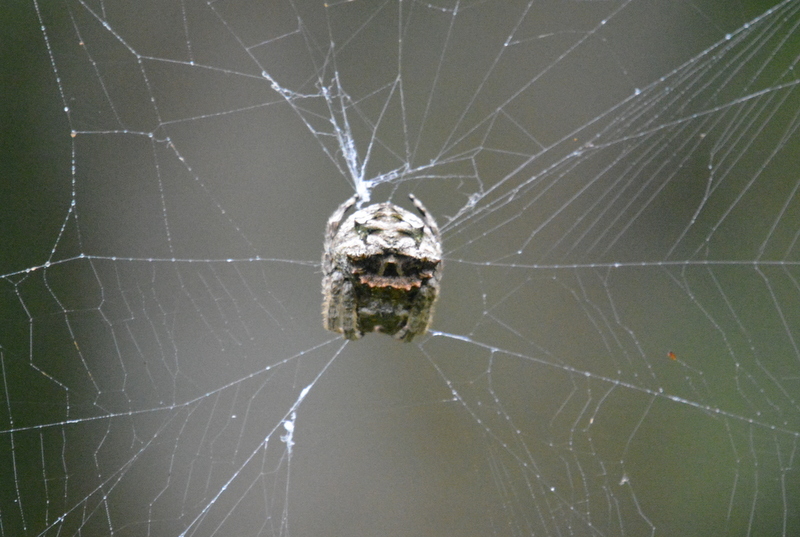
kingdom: Animalia
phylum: Arthropoda
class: Arachnida
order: Araneae
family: Araneidae
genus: Caerostris
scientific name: Caerostris sumatrana
